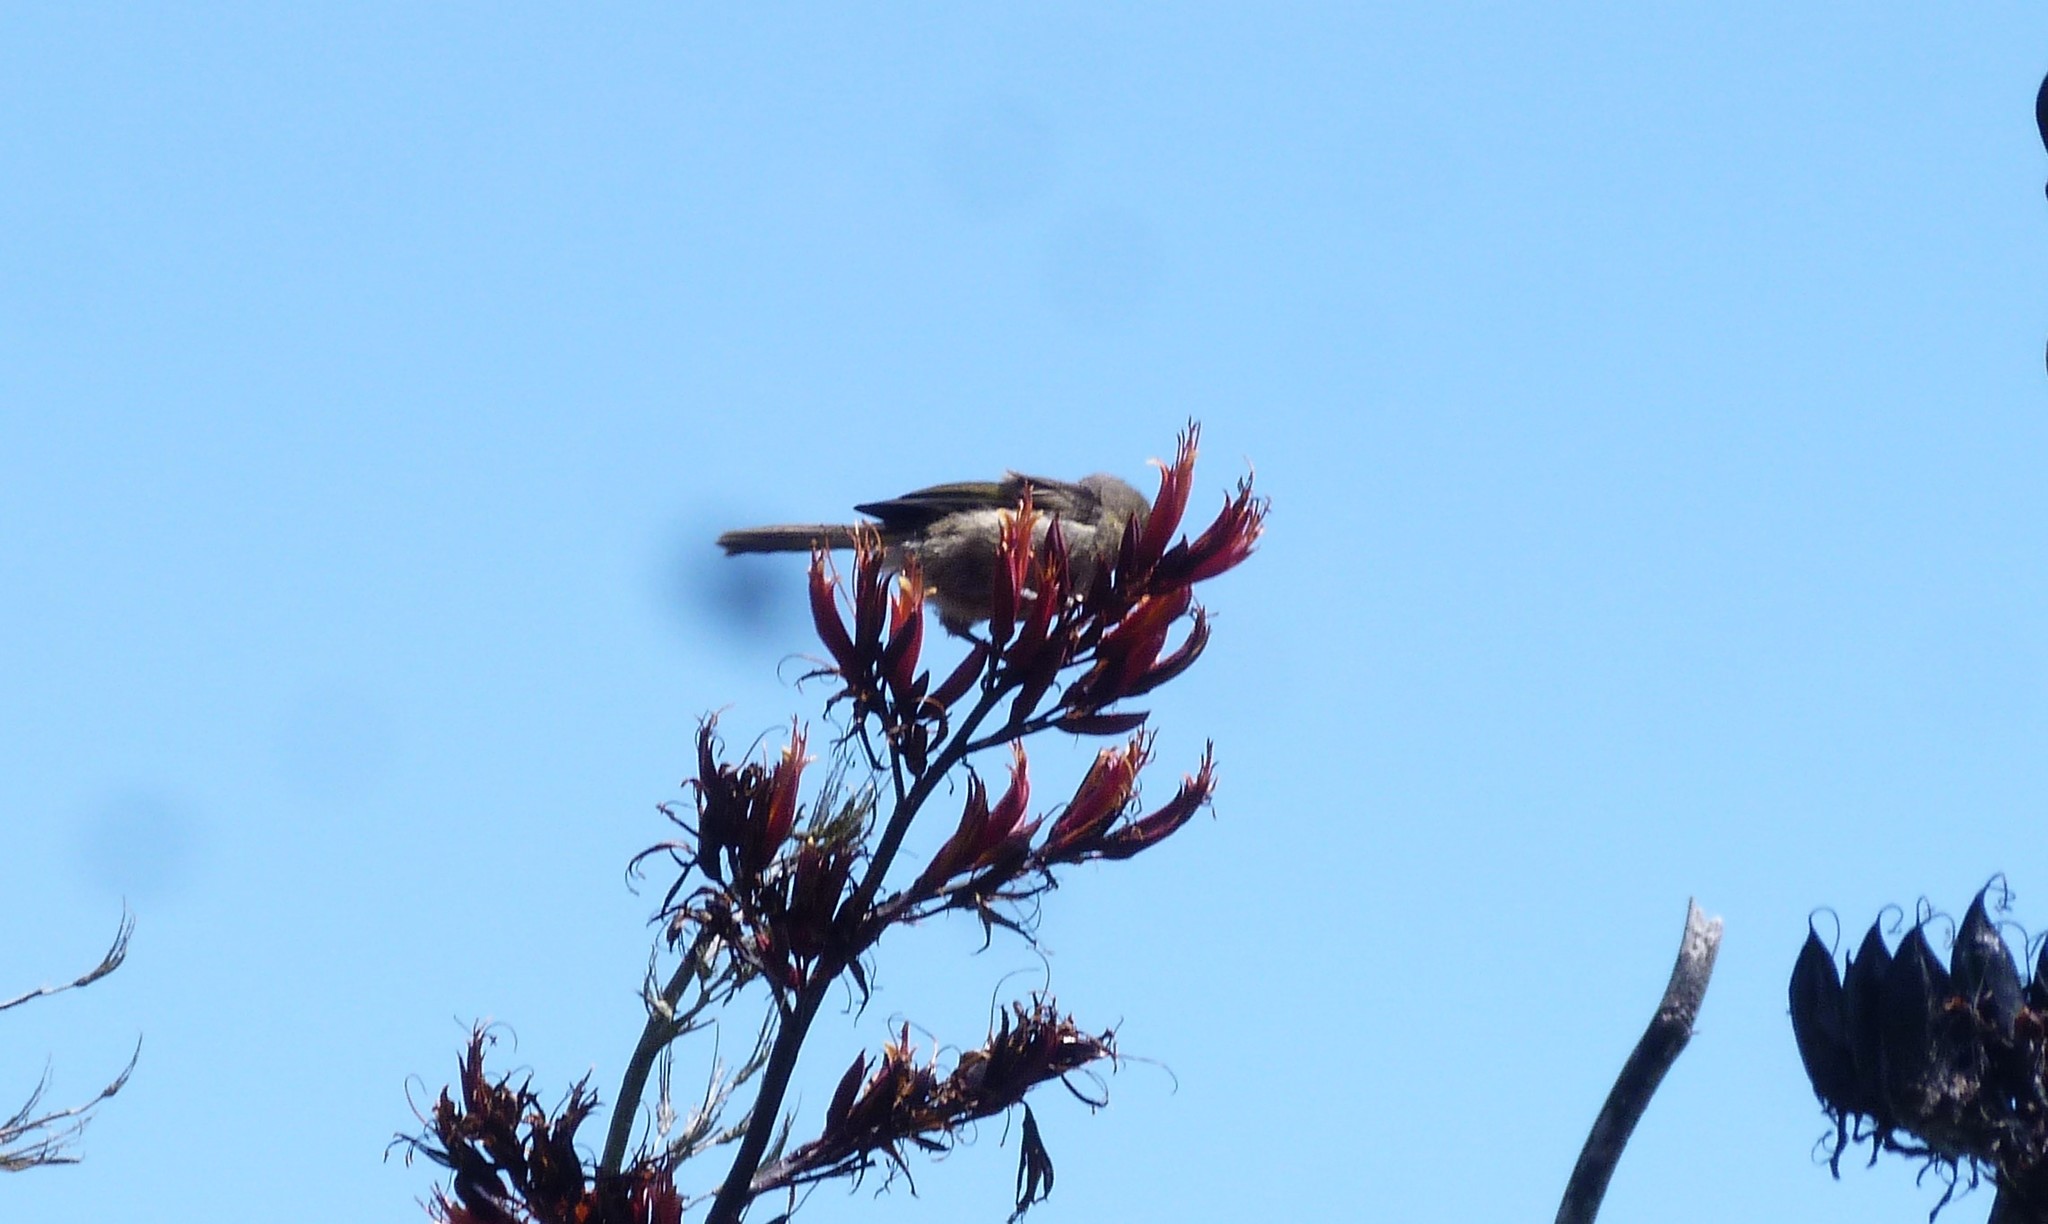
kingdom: Animalia
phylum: Chordata
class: Aves
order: Passeriformes
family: Meliphagidae
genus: Anthornis
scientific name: Anthornis melanura
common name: New zealand bellbird
